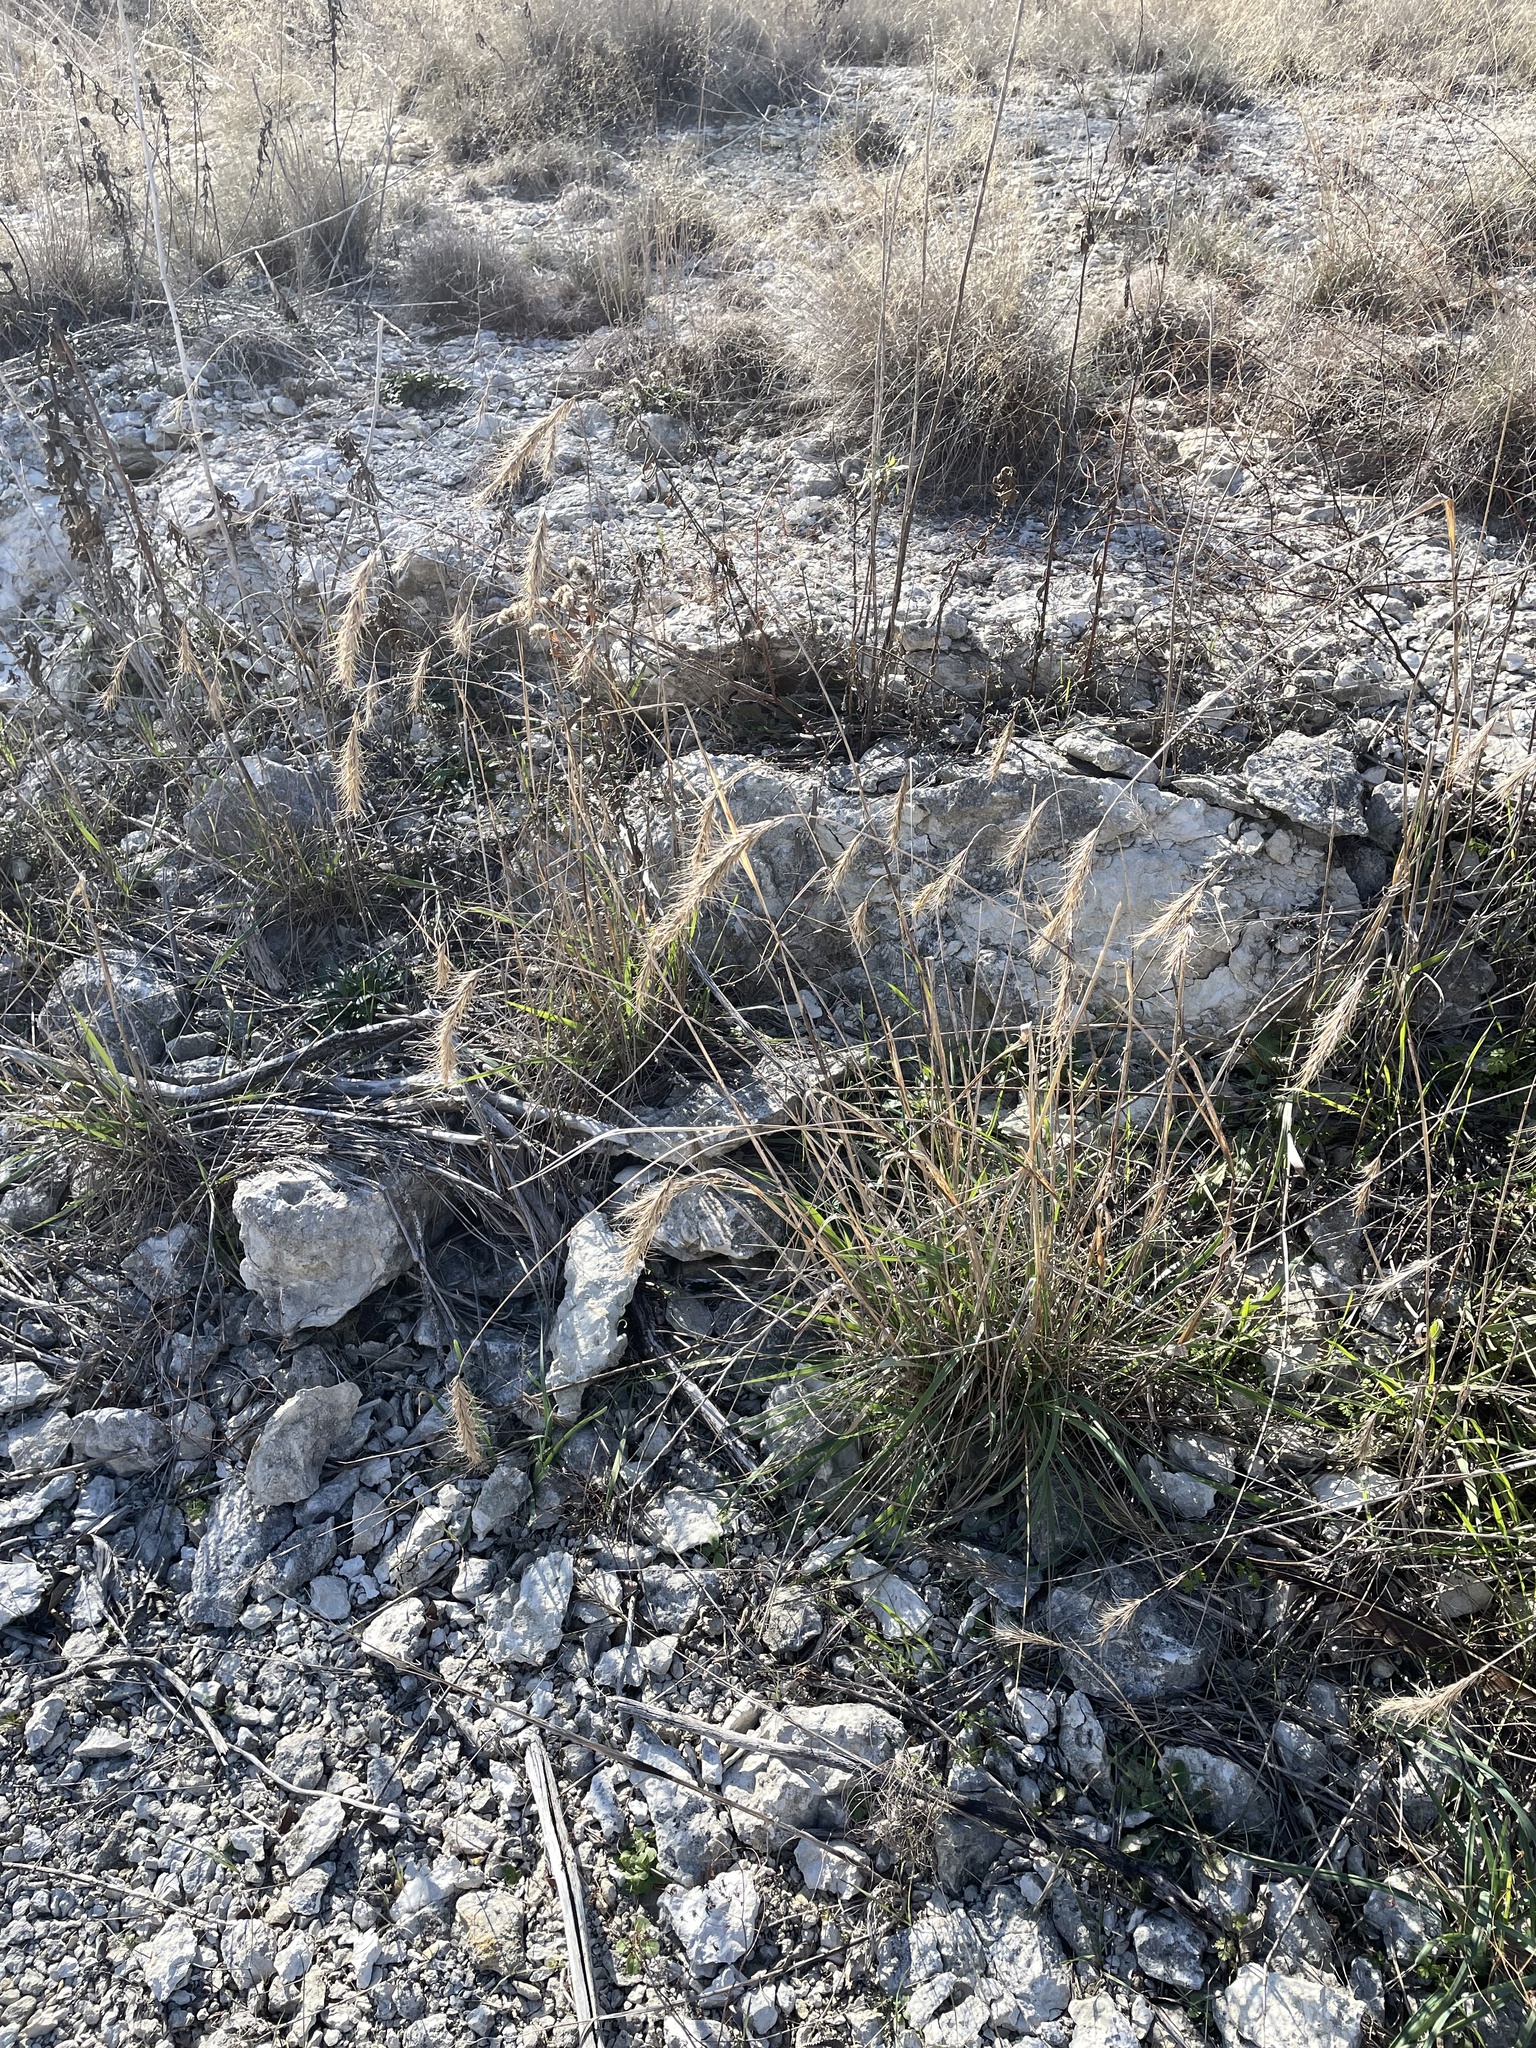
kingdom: Plantae
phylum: Tracheophyta
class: Liliopsida
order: Poales
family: Poaceae
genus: Elymus
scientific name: Elymus canadensis
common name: Canada wild rye
